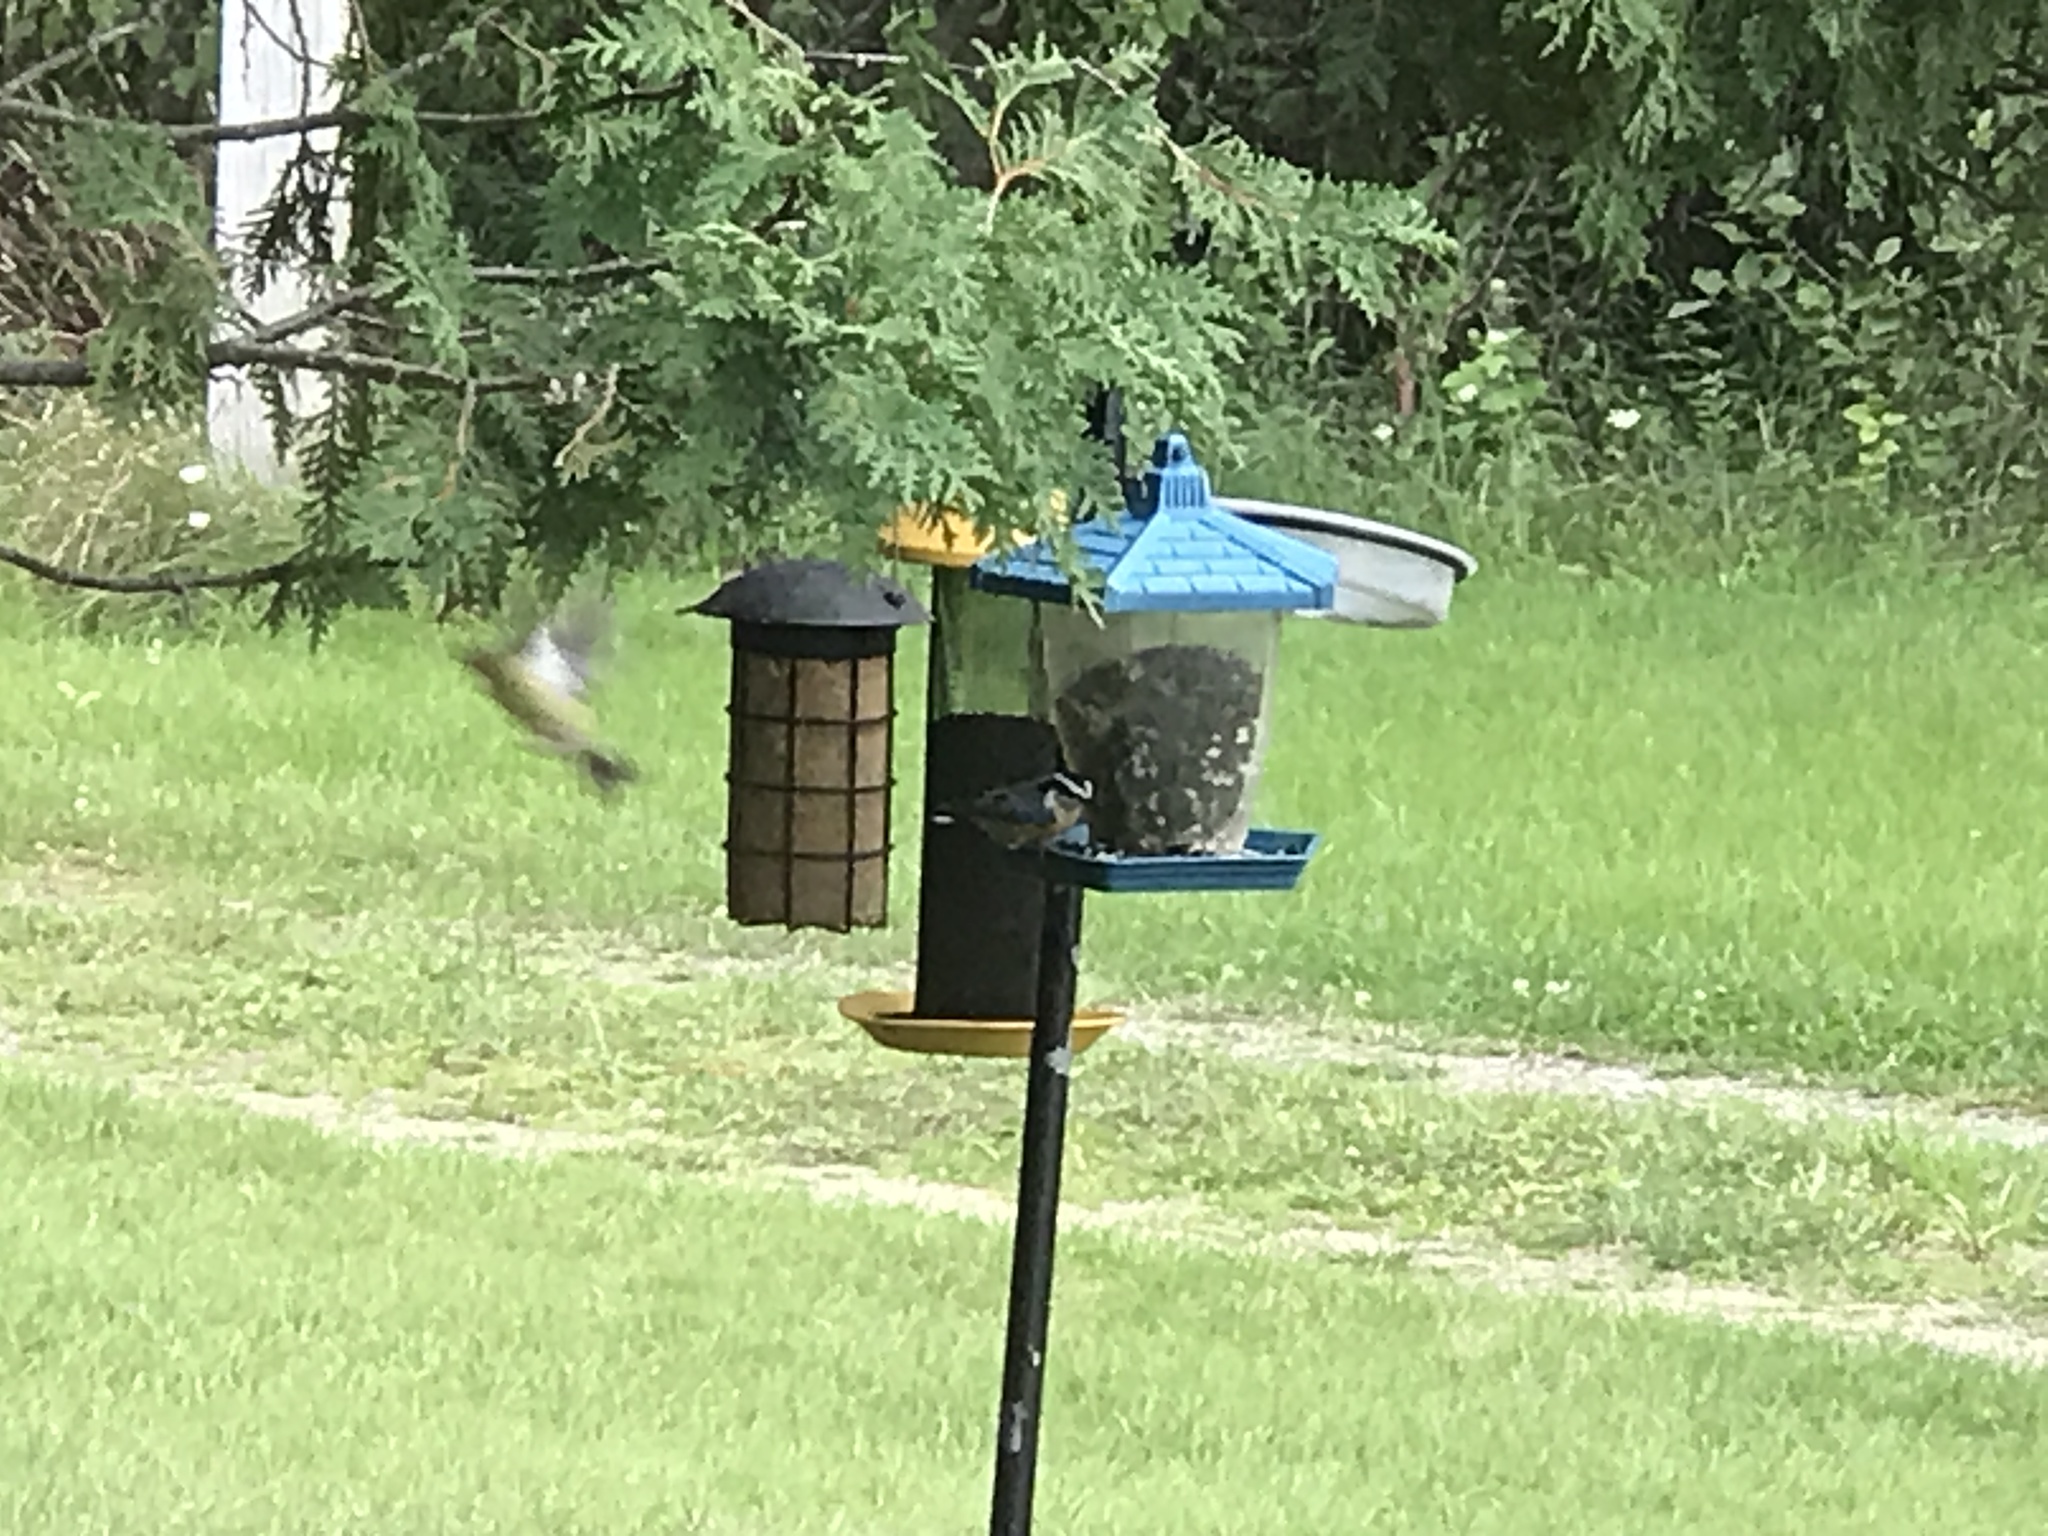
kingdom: Animalia
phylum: Chordata
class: Aves
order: Passeriformes
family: Sittidae
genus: Sitta
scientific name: Sitta canadensis
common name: Red-breasted nuthatch
